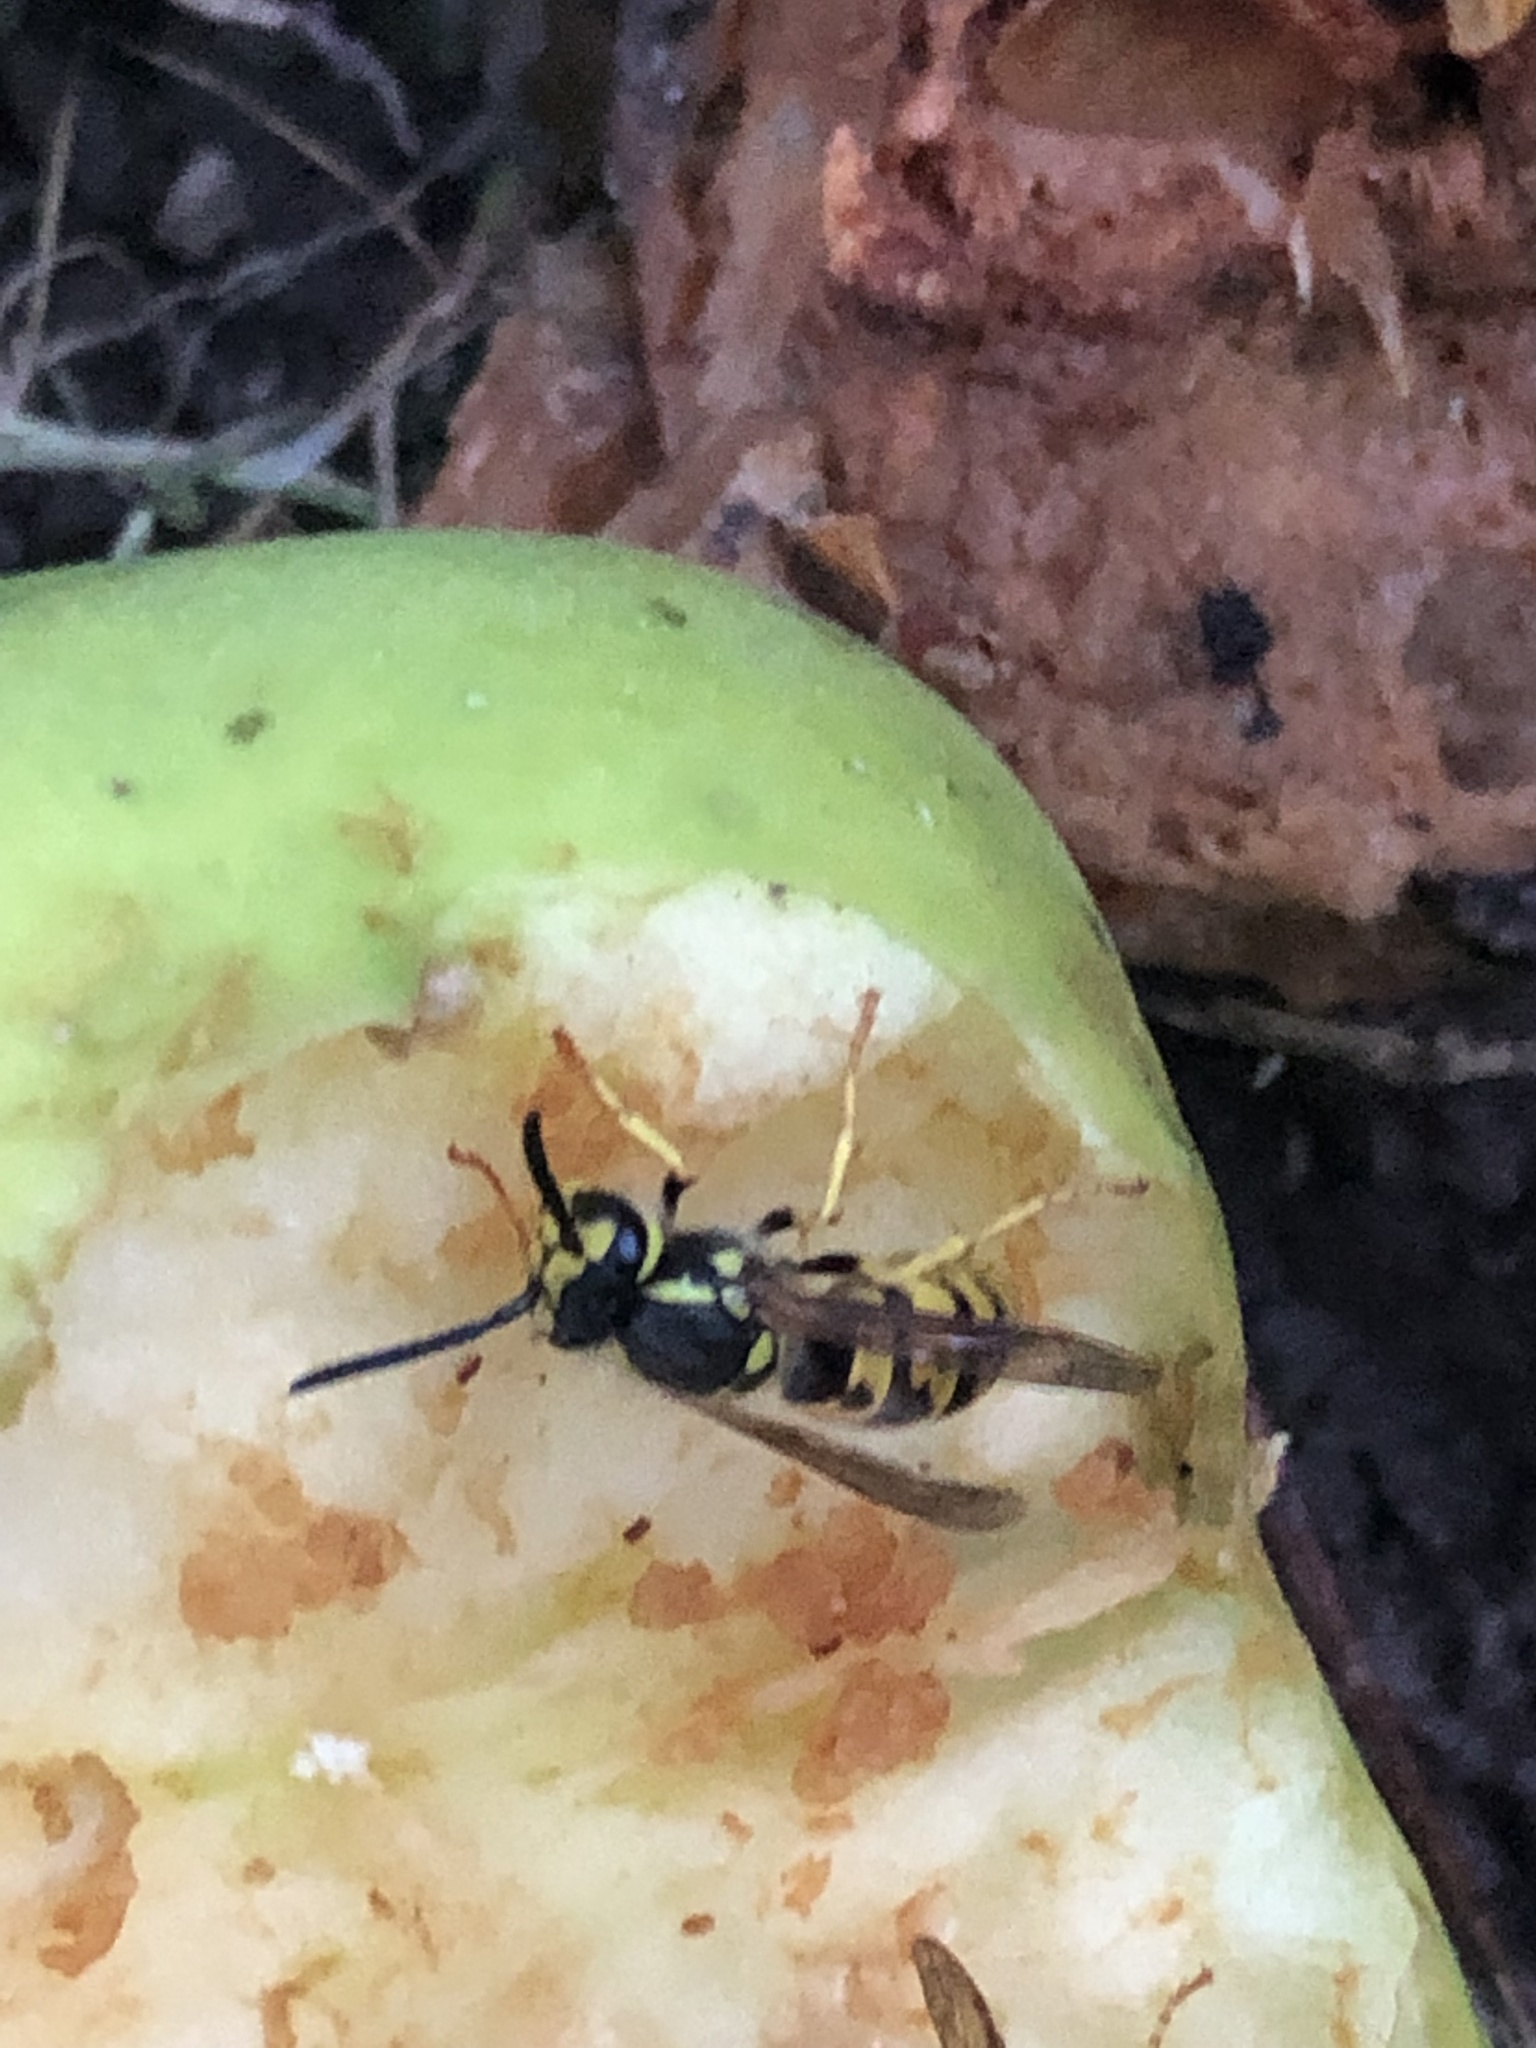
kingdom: Animalia
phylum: Arthropoda
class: Insecta
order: Hymenoptera
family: Vespidae
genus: Vespula
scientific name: Vespula germanica
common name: German wasp
